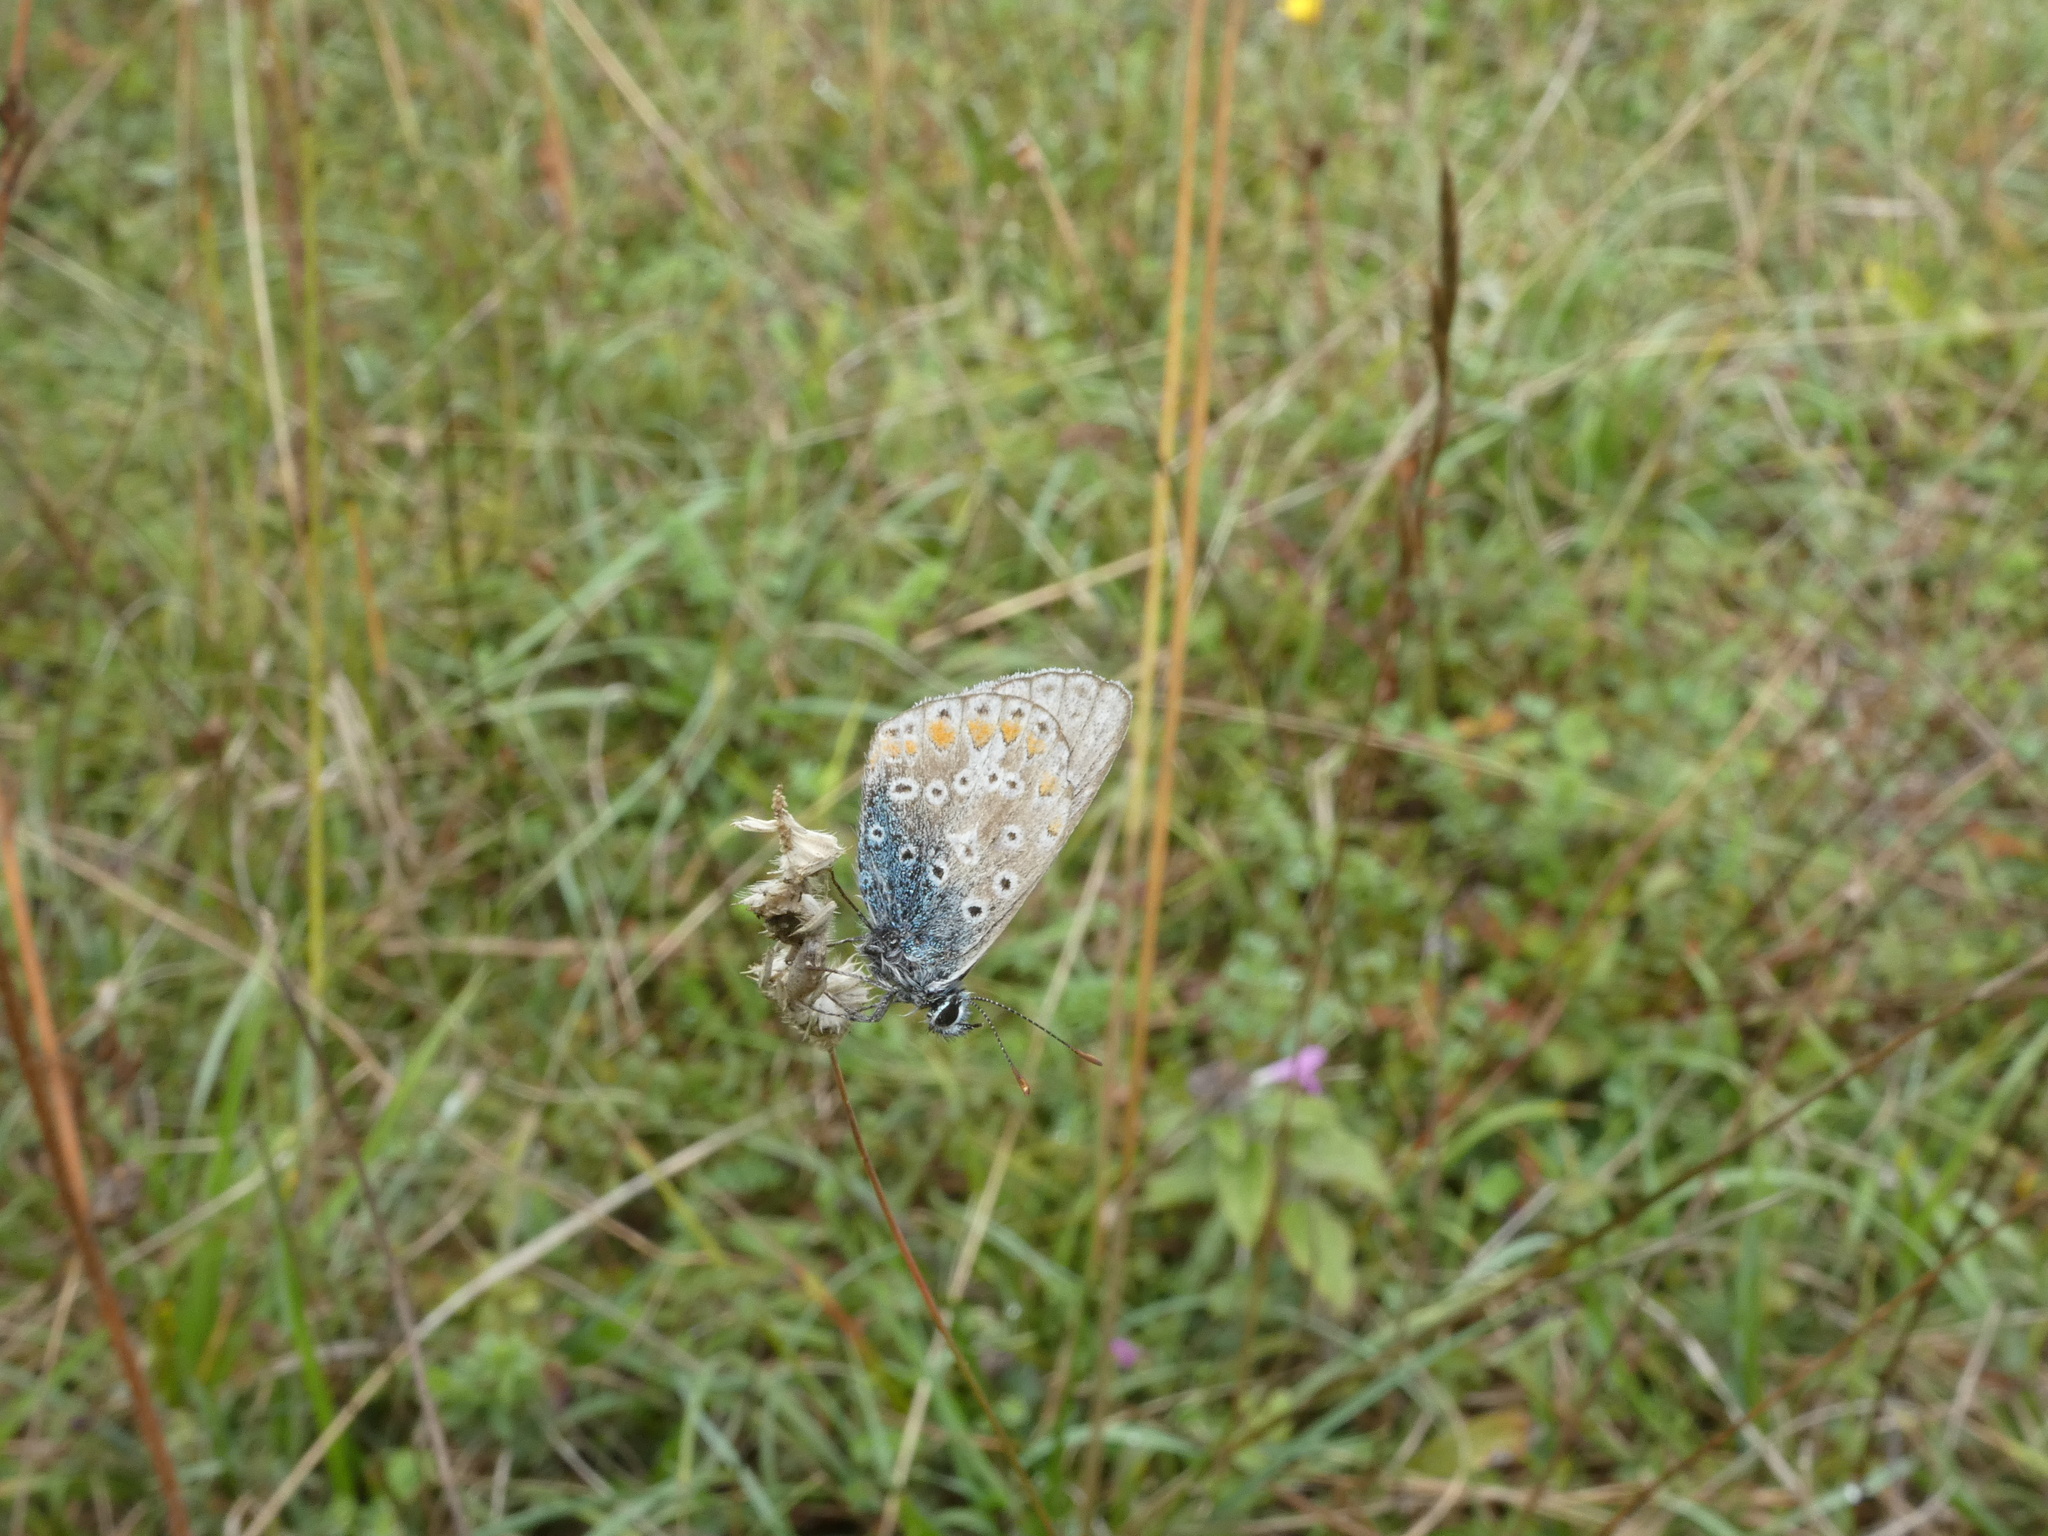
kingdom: Animalia
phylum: Arthropoda
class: Insecta
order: Lepidoptera
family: Lycaenidae
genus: Polyommatus
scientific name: Polyommatus icarus
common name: Common blue
